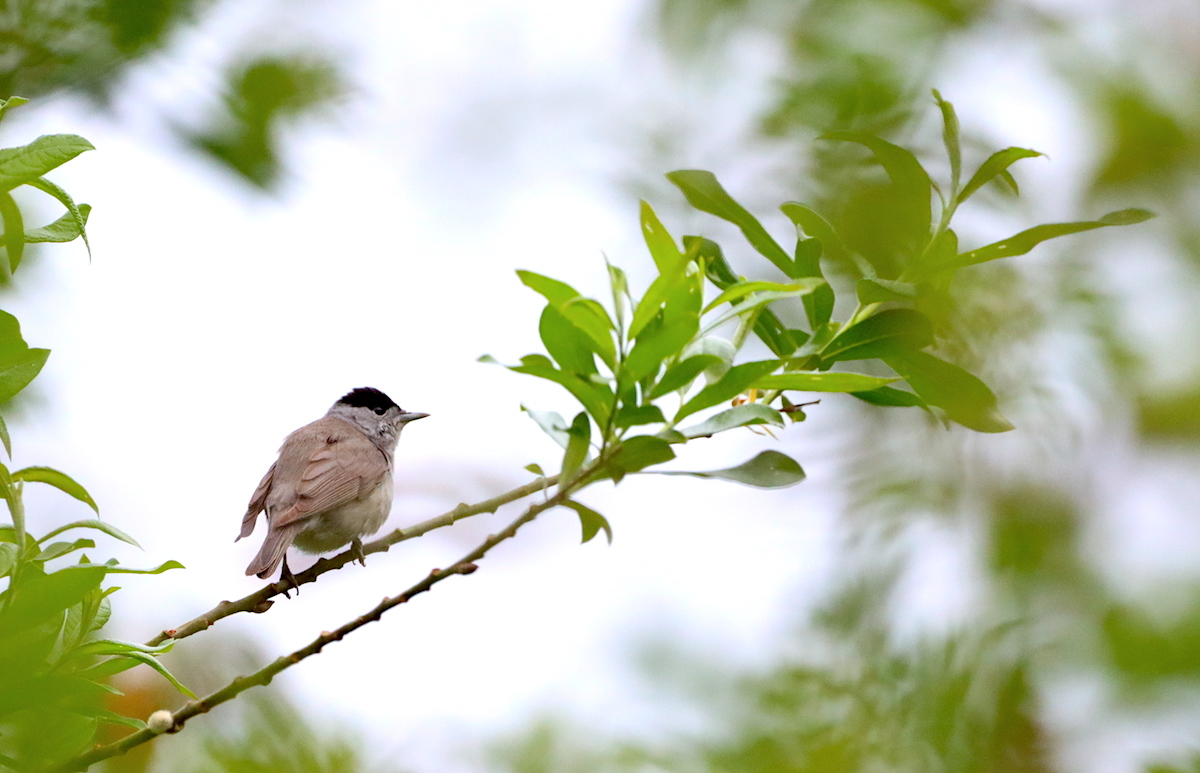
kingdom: Animalia
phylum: Chordata
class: Aves
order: Passeriformes
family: Sylviidae
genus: Sylvia
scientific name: Sylvia atricapilla
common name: Eurasian blackcap
